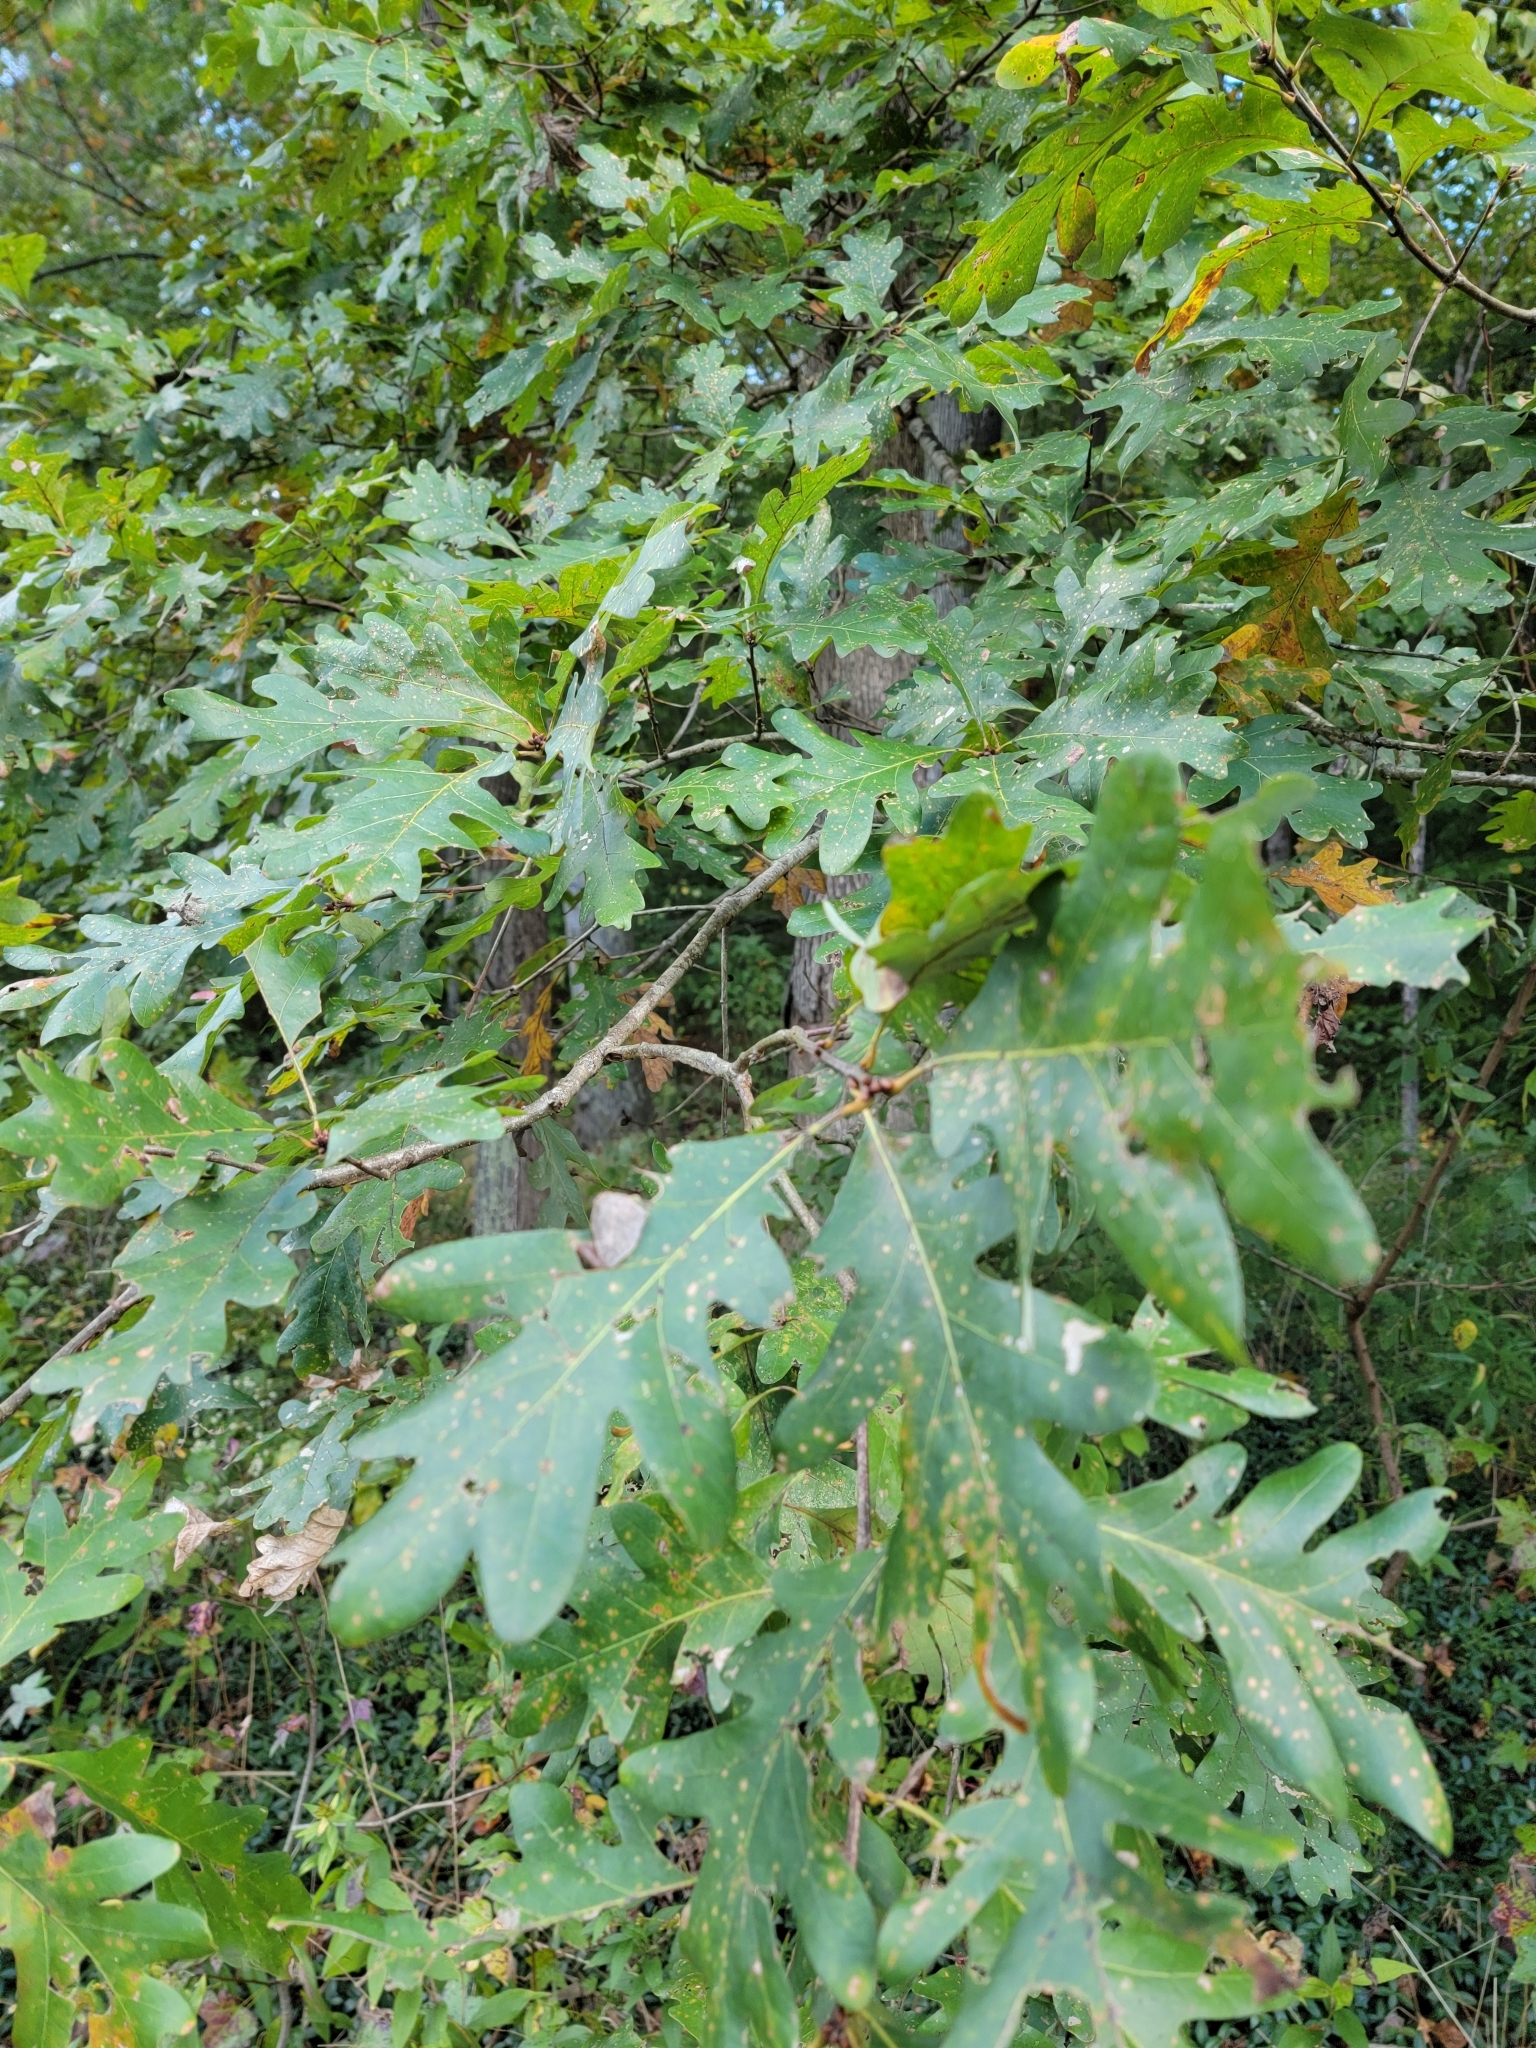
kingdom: Plantae
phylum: Tracheophyta
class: Magnoliopsida
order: Fagales
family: Fagaceae
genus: Quercus
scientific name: Quercus alba
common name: White oak
